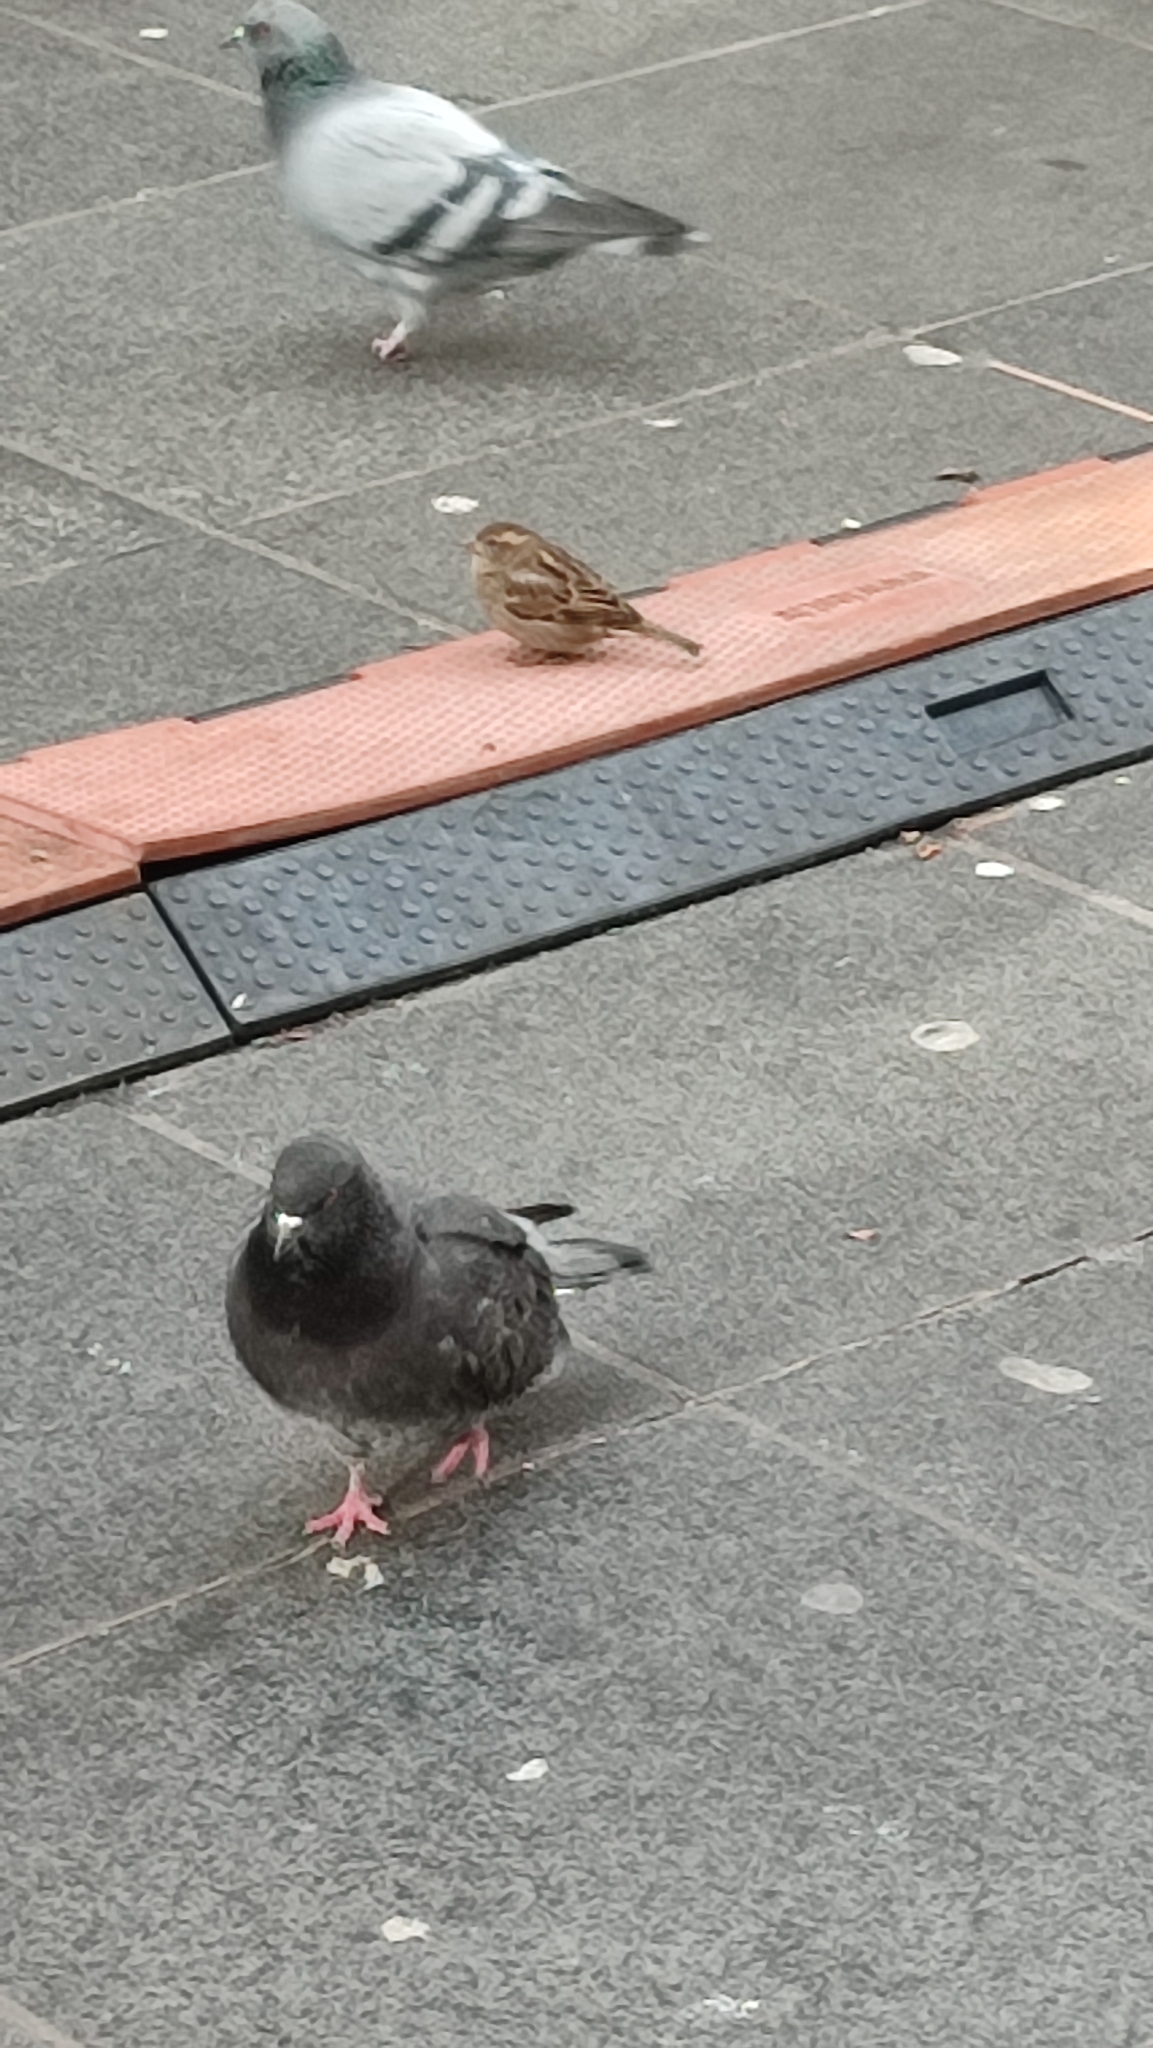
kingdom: Animalia
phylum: Chordata
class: Aves
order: Columbiformes
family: Columbidae
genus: Columba
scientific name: Columba livia
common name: Rock pigeon
